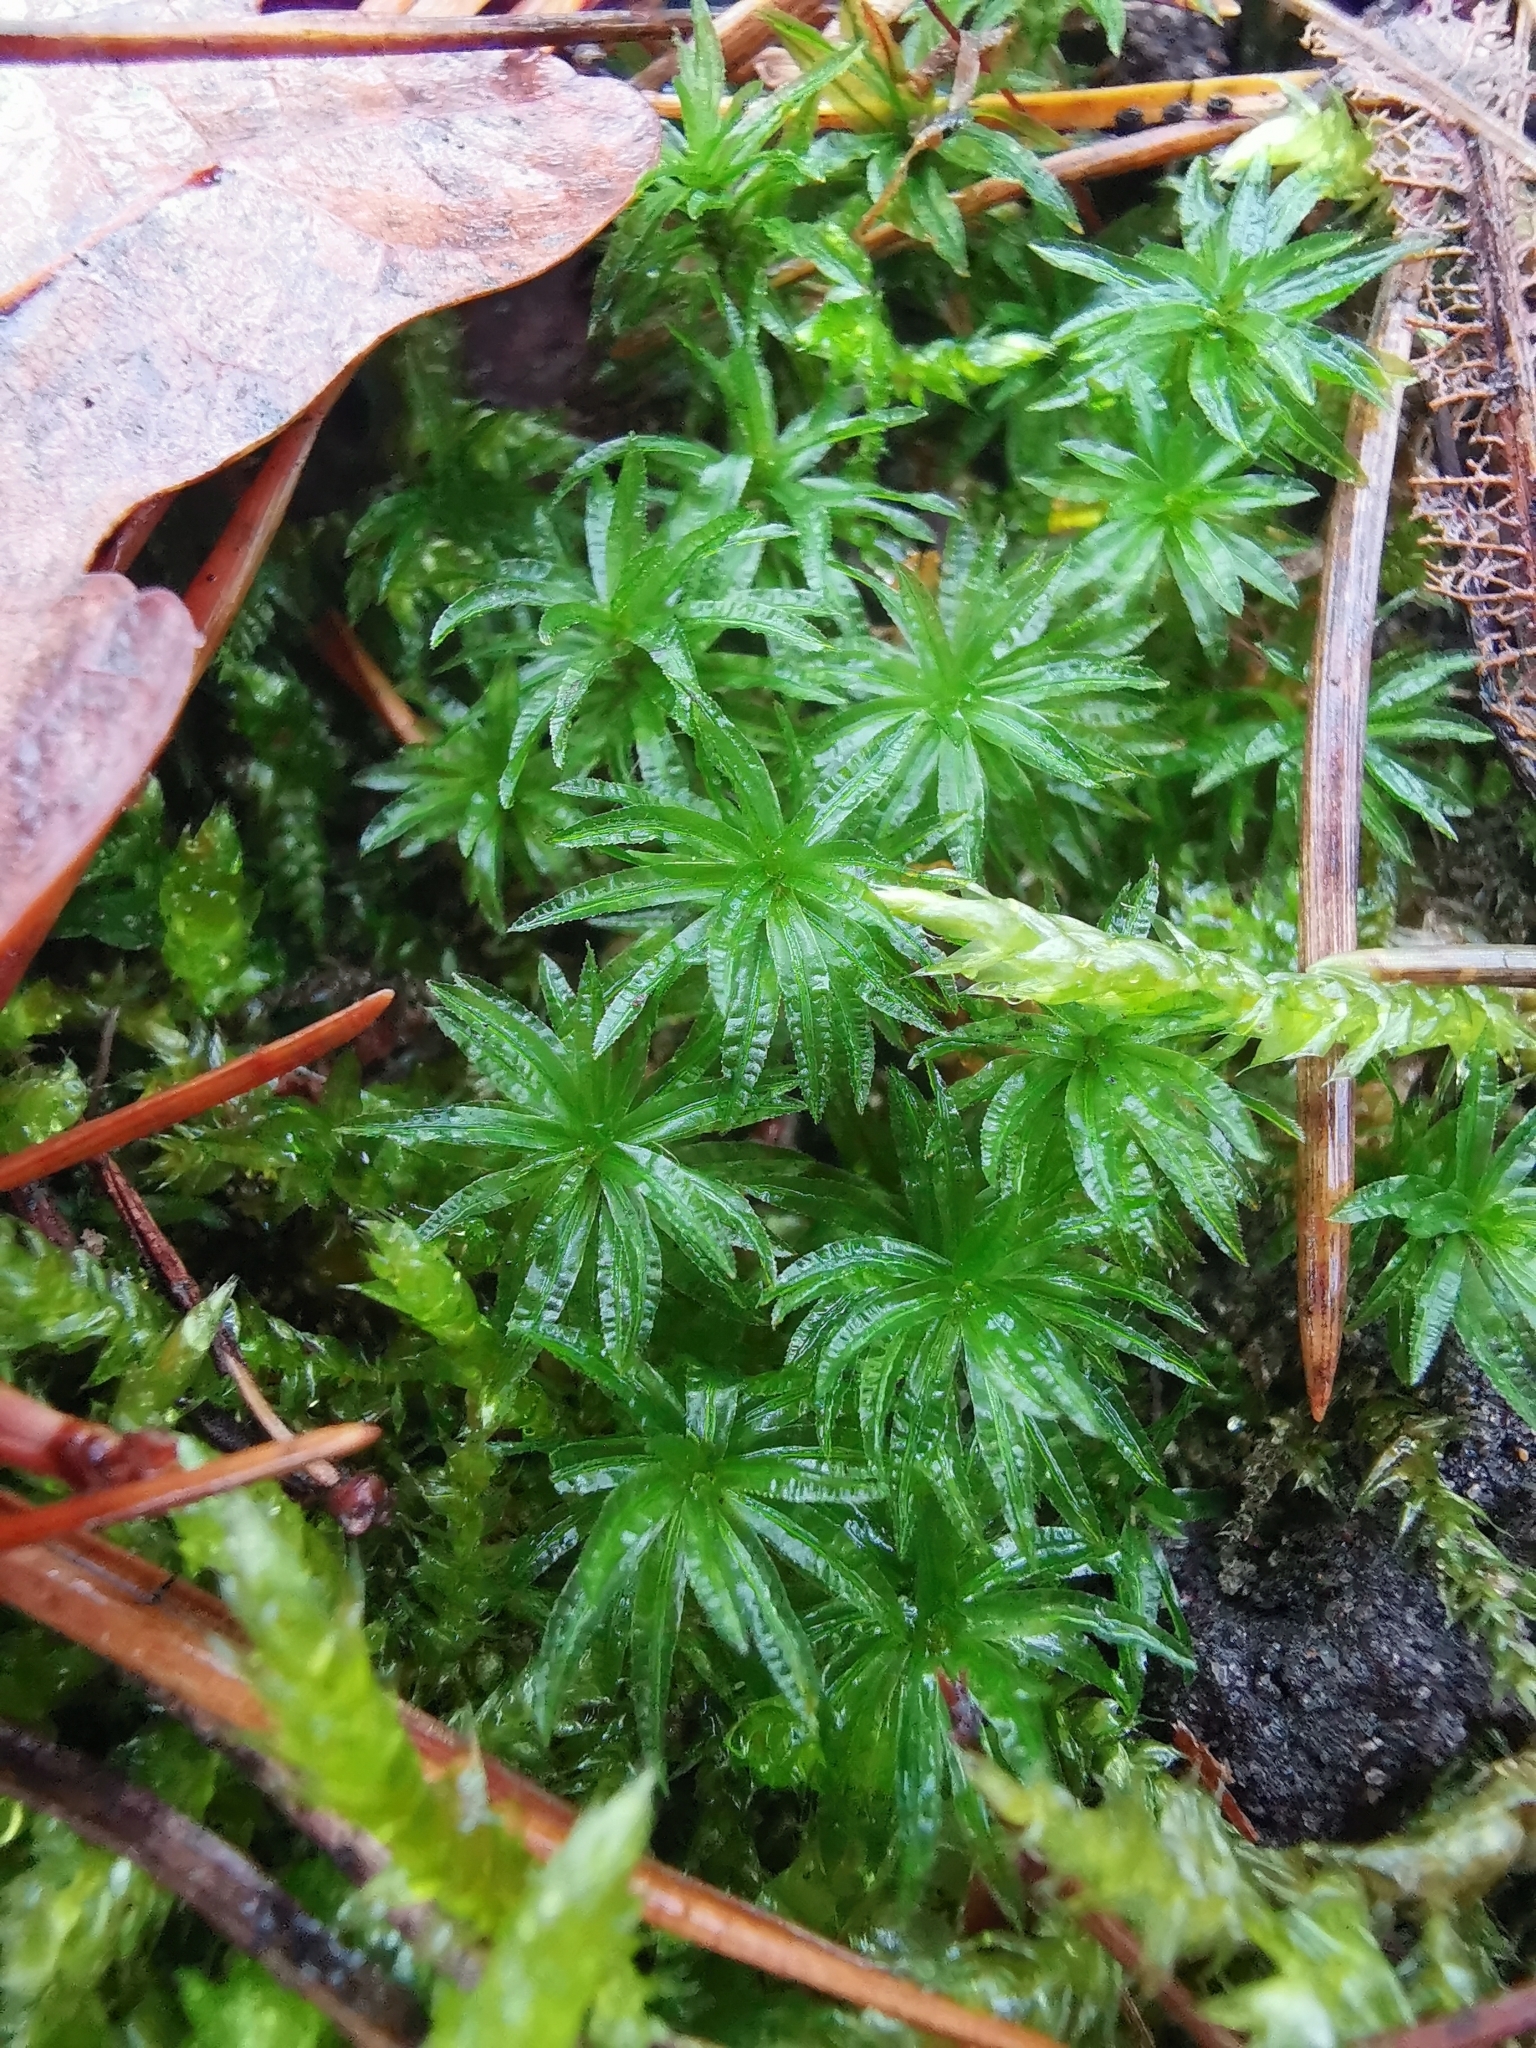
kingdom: Plantae
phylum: Bryophyta
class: Polytrichopsida
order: Polytrichales
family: Polytrichaceae
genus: Atrichum
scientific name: Atrichum undulatum
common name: Common smoothcap
